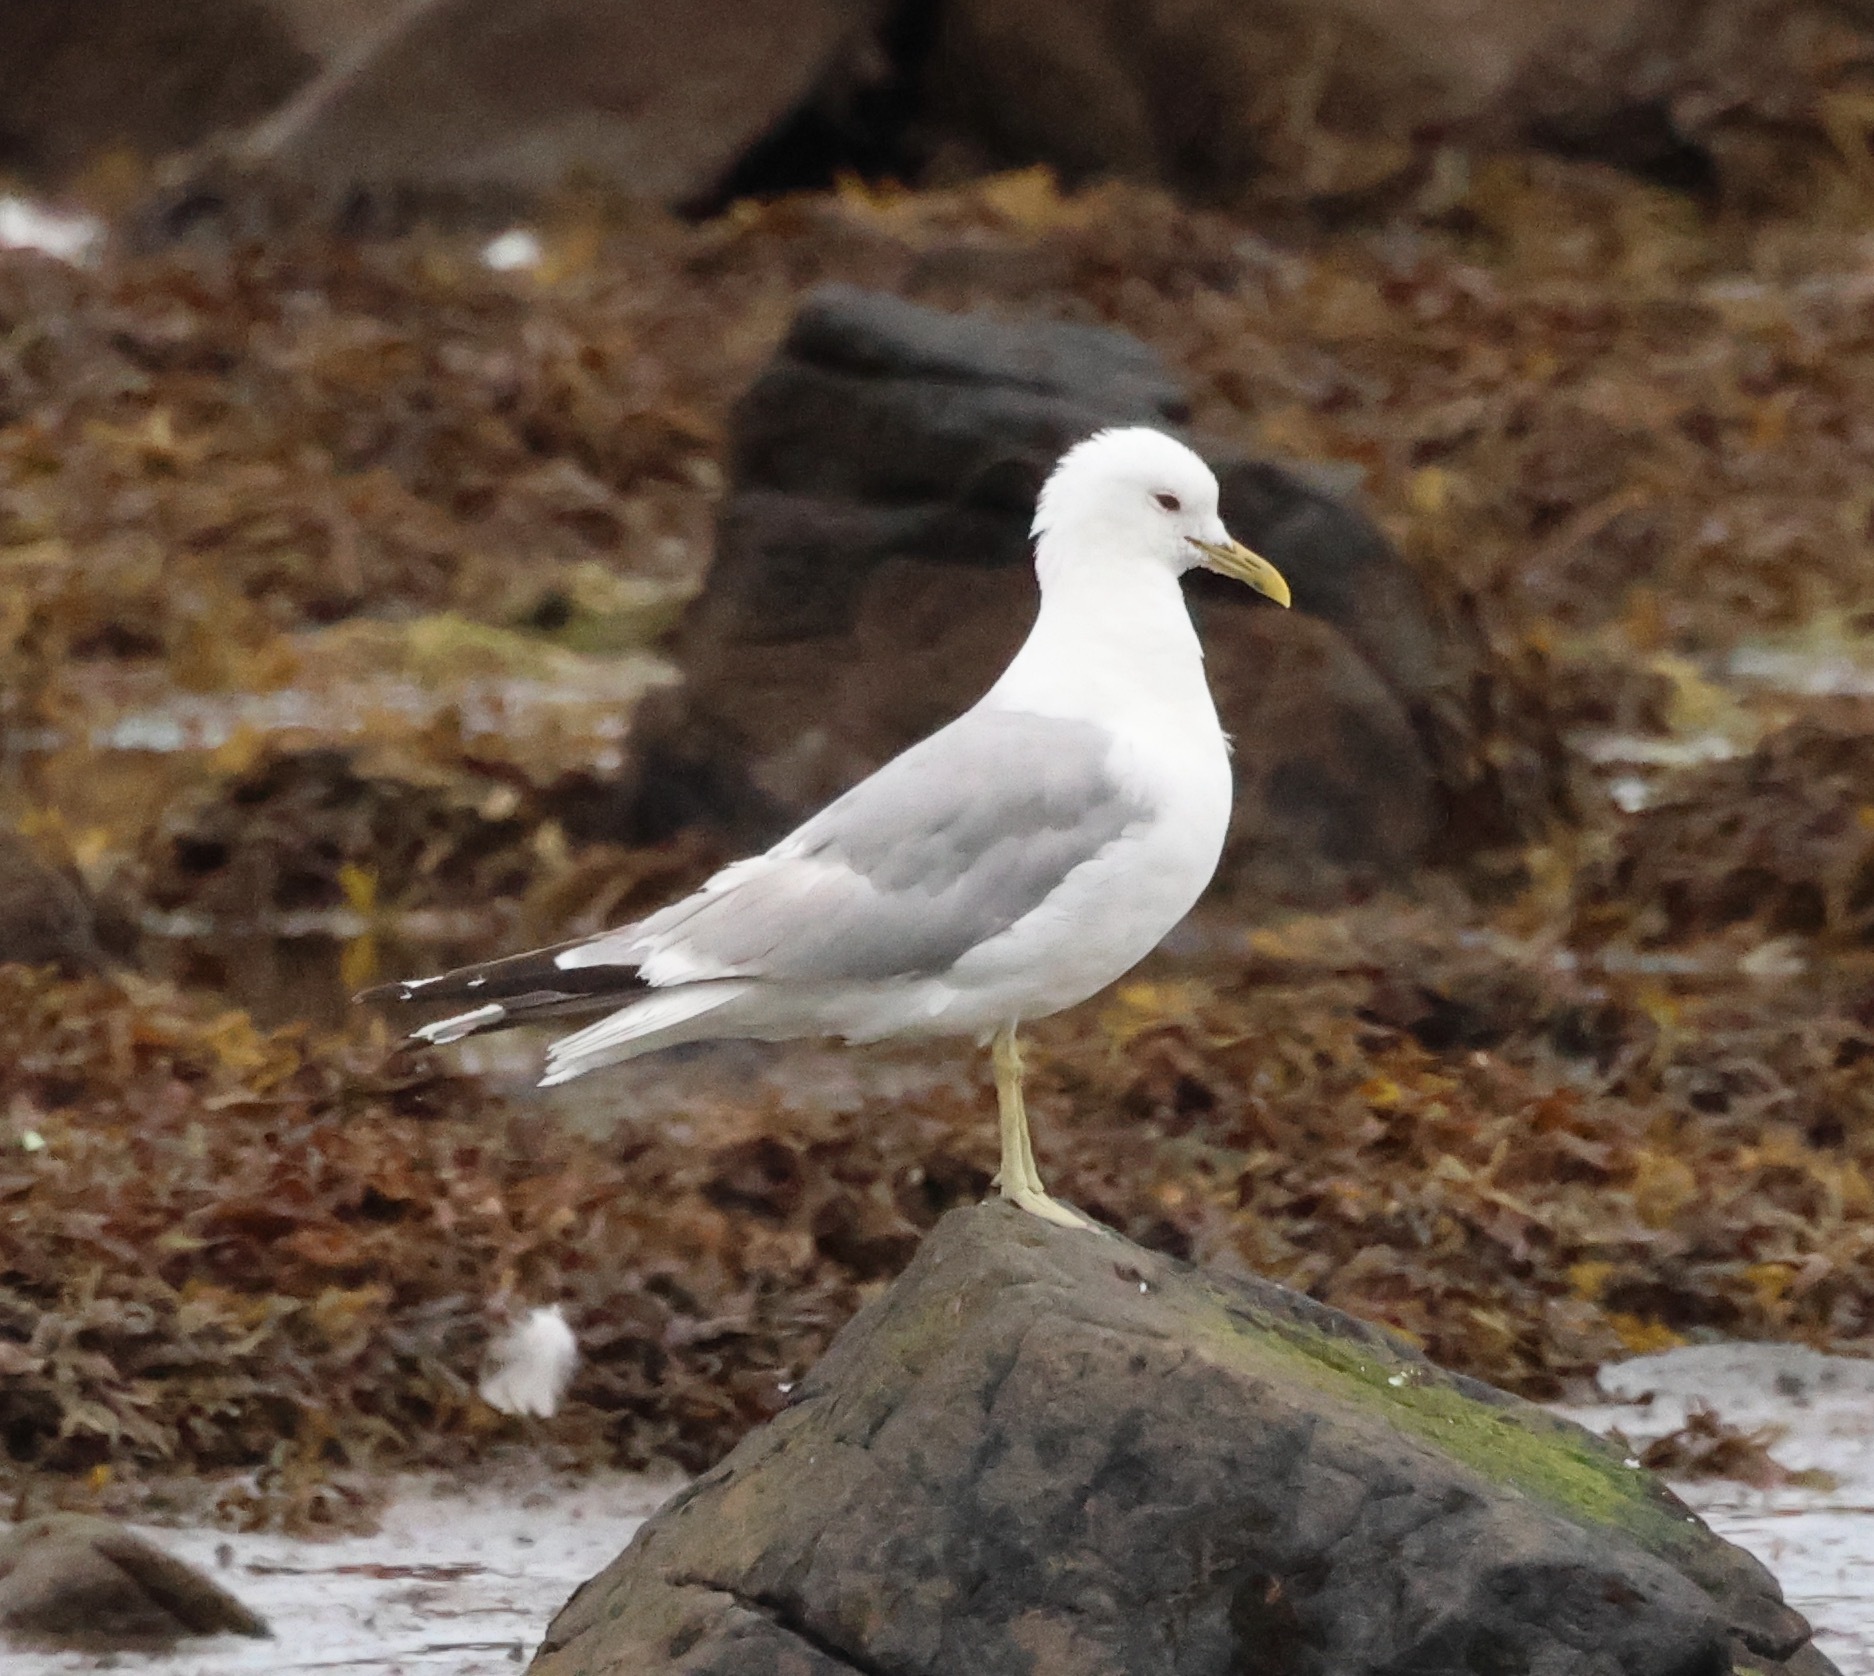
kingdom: Animalia
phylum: Chordata
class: Aves
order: Charadriiformes
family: Laridae
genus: Larus
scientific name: Larus canus
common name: Mew gull
